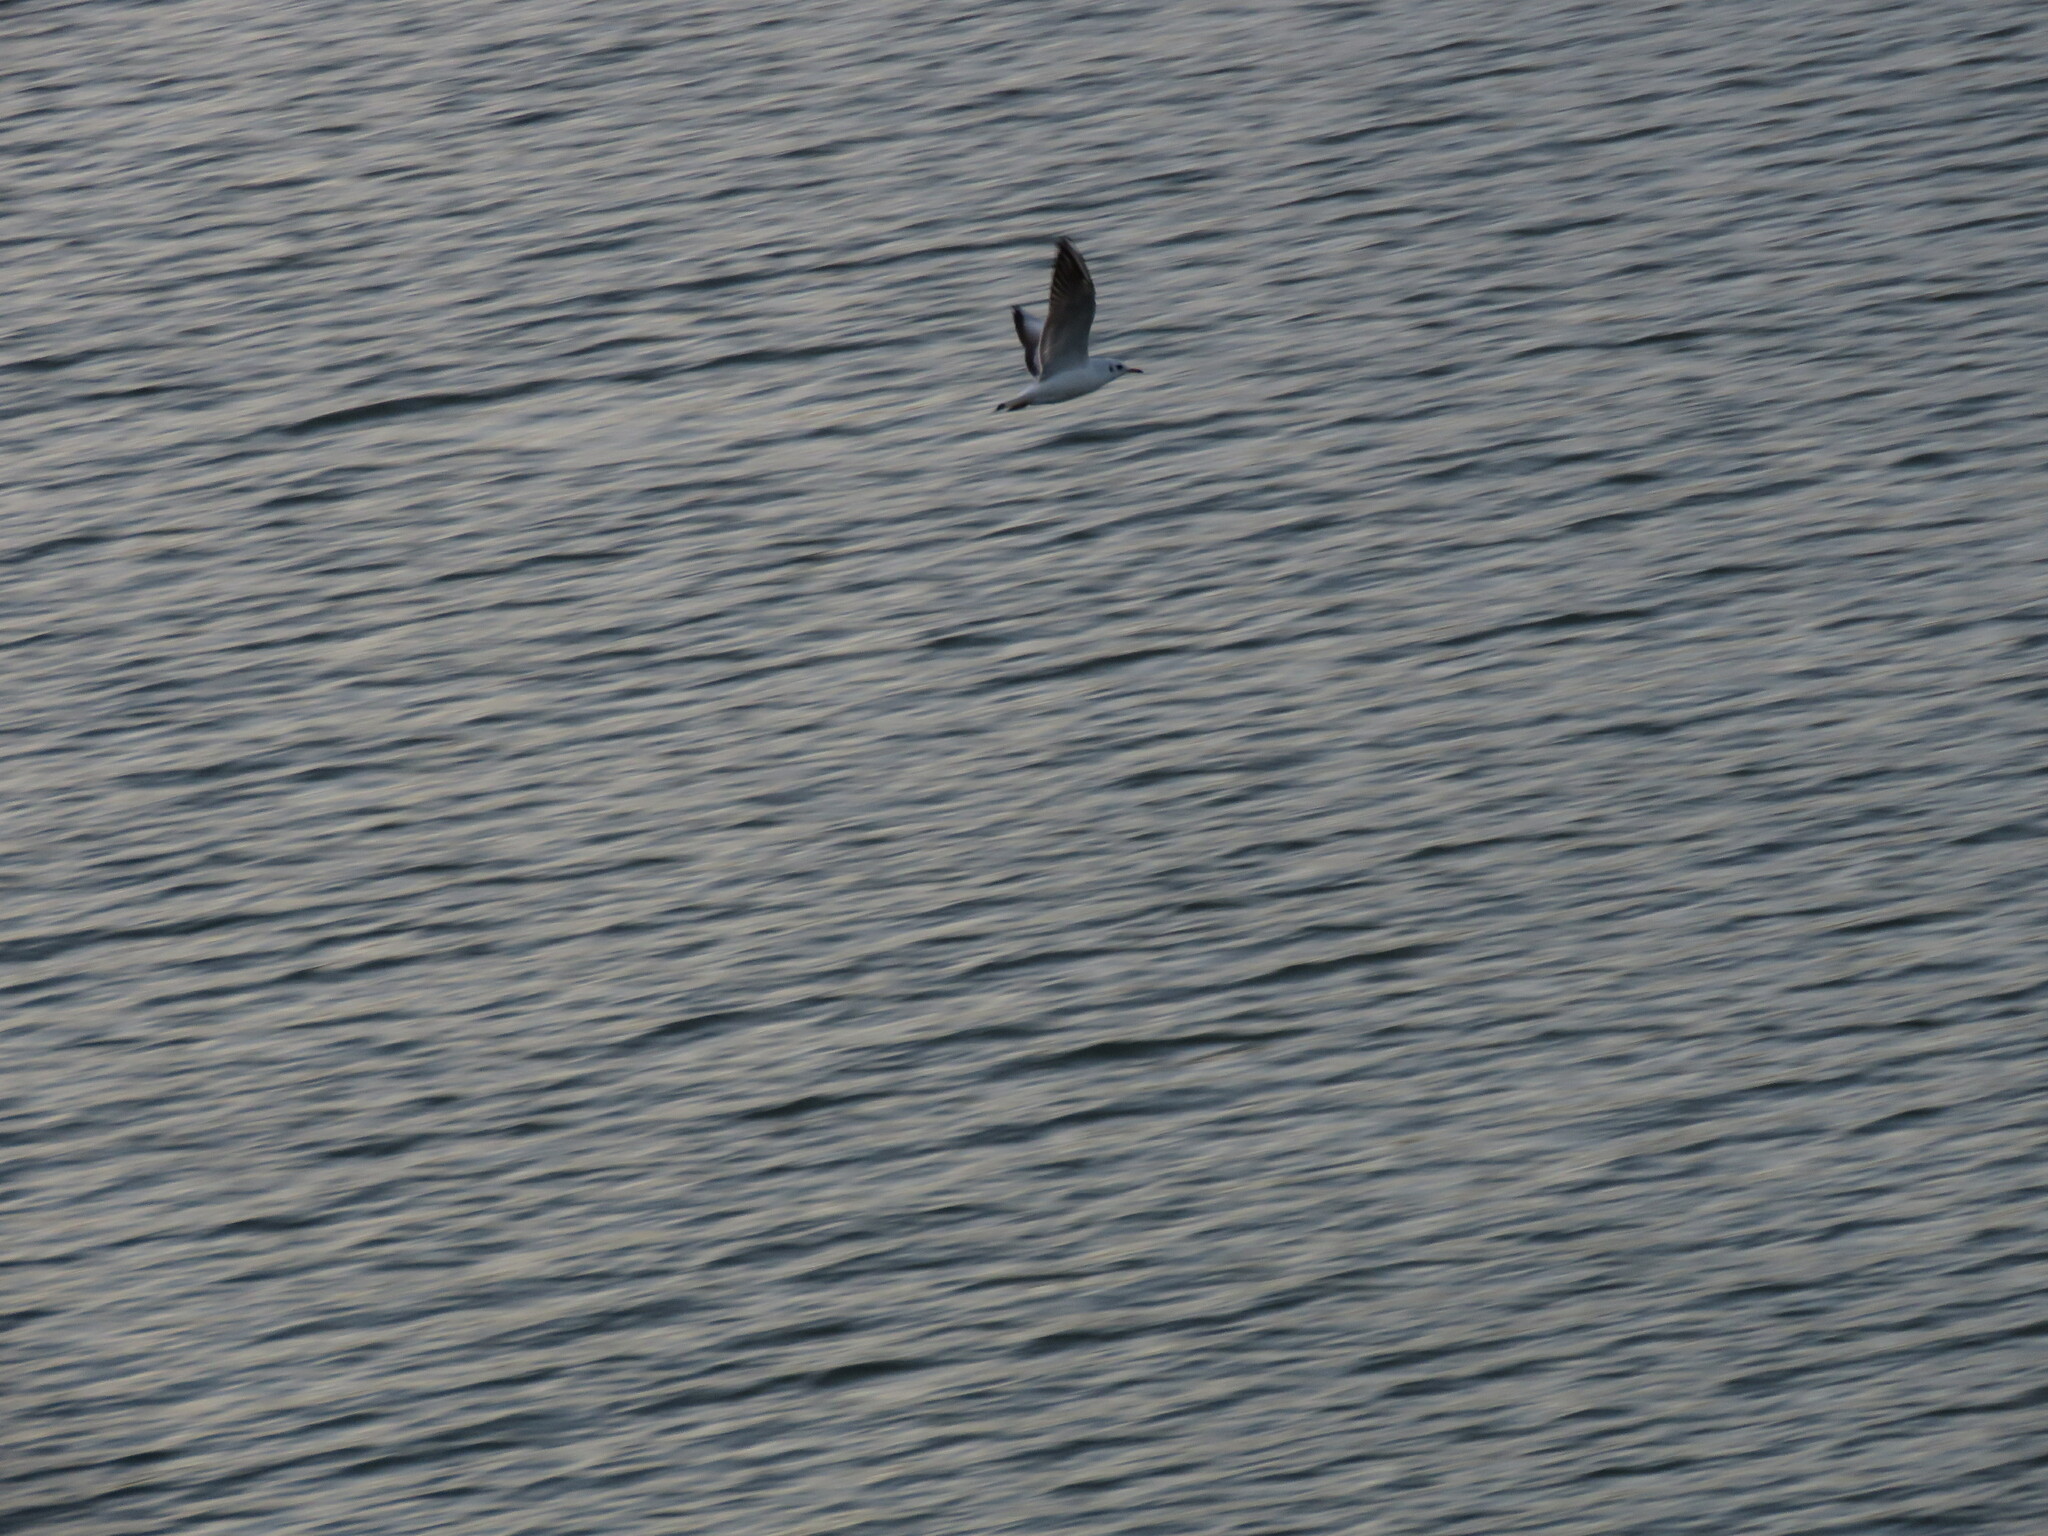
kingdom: Animalia
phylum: Chordata
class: Aves
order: Charadriiformes
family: Laridae
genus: Chroicocephalus
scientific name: Chroicocephalus ridibundus
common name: Black-headed gull
